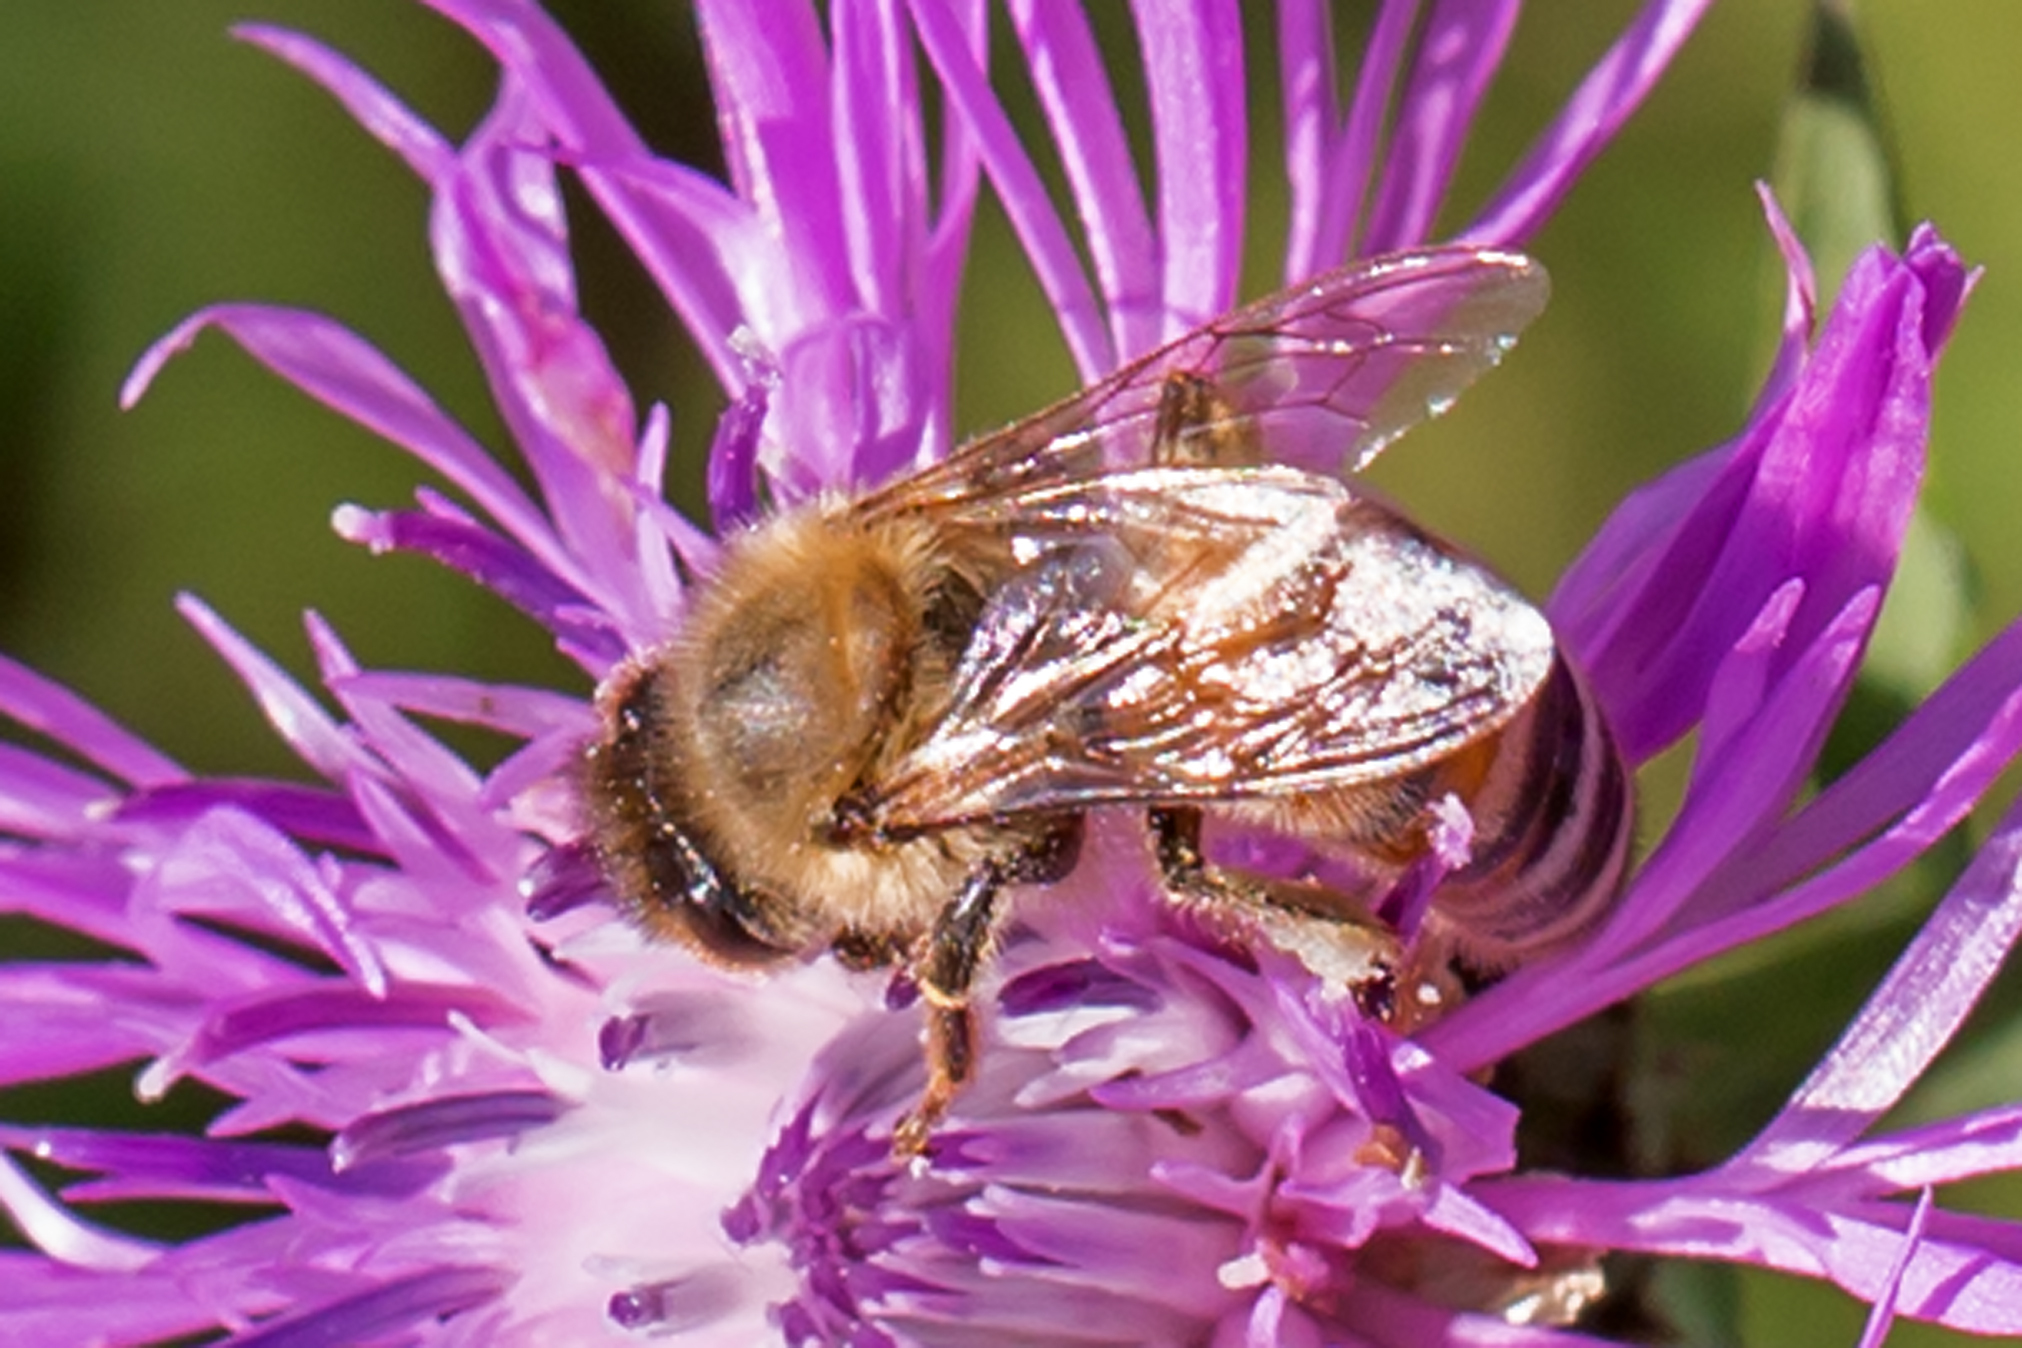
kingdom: Animalia
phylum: Arthropoda
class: Insecta
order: Hymenoptera
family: Apidae
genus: Apis
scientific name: Apis mellifera
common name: Honey bee
